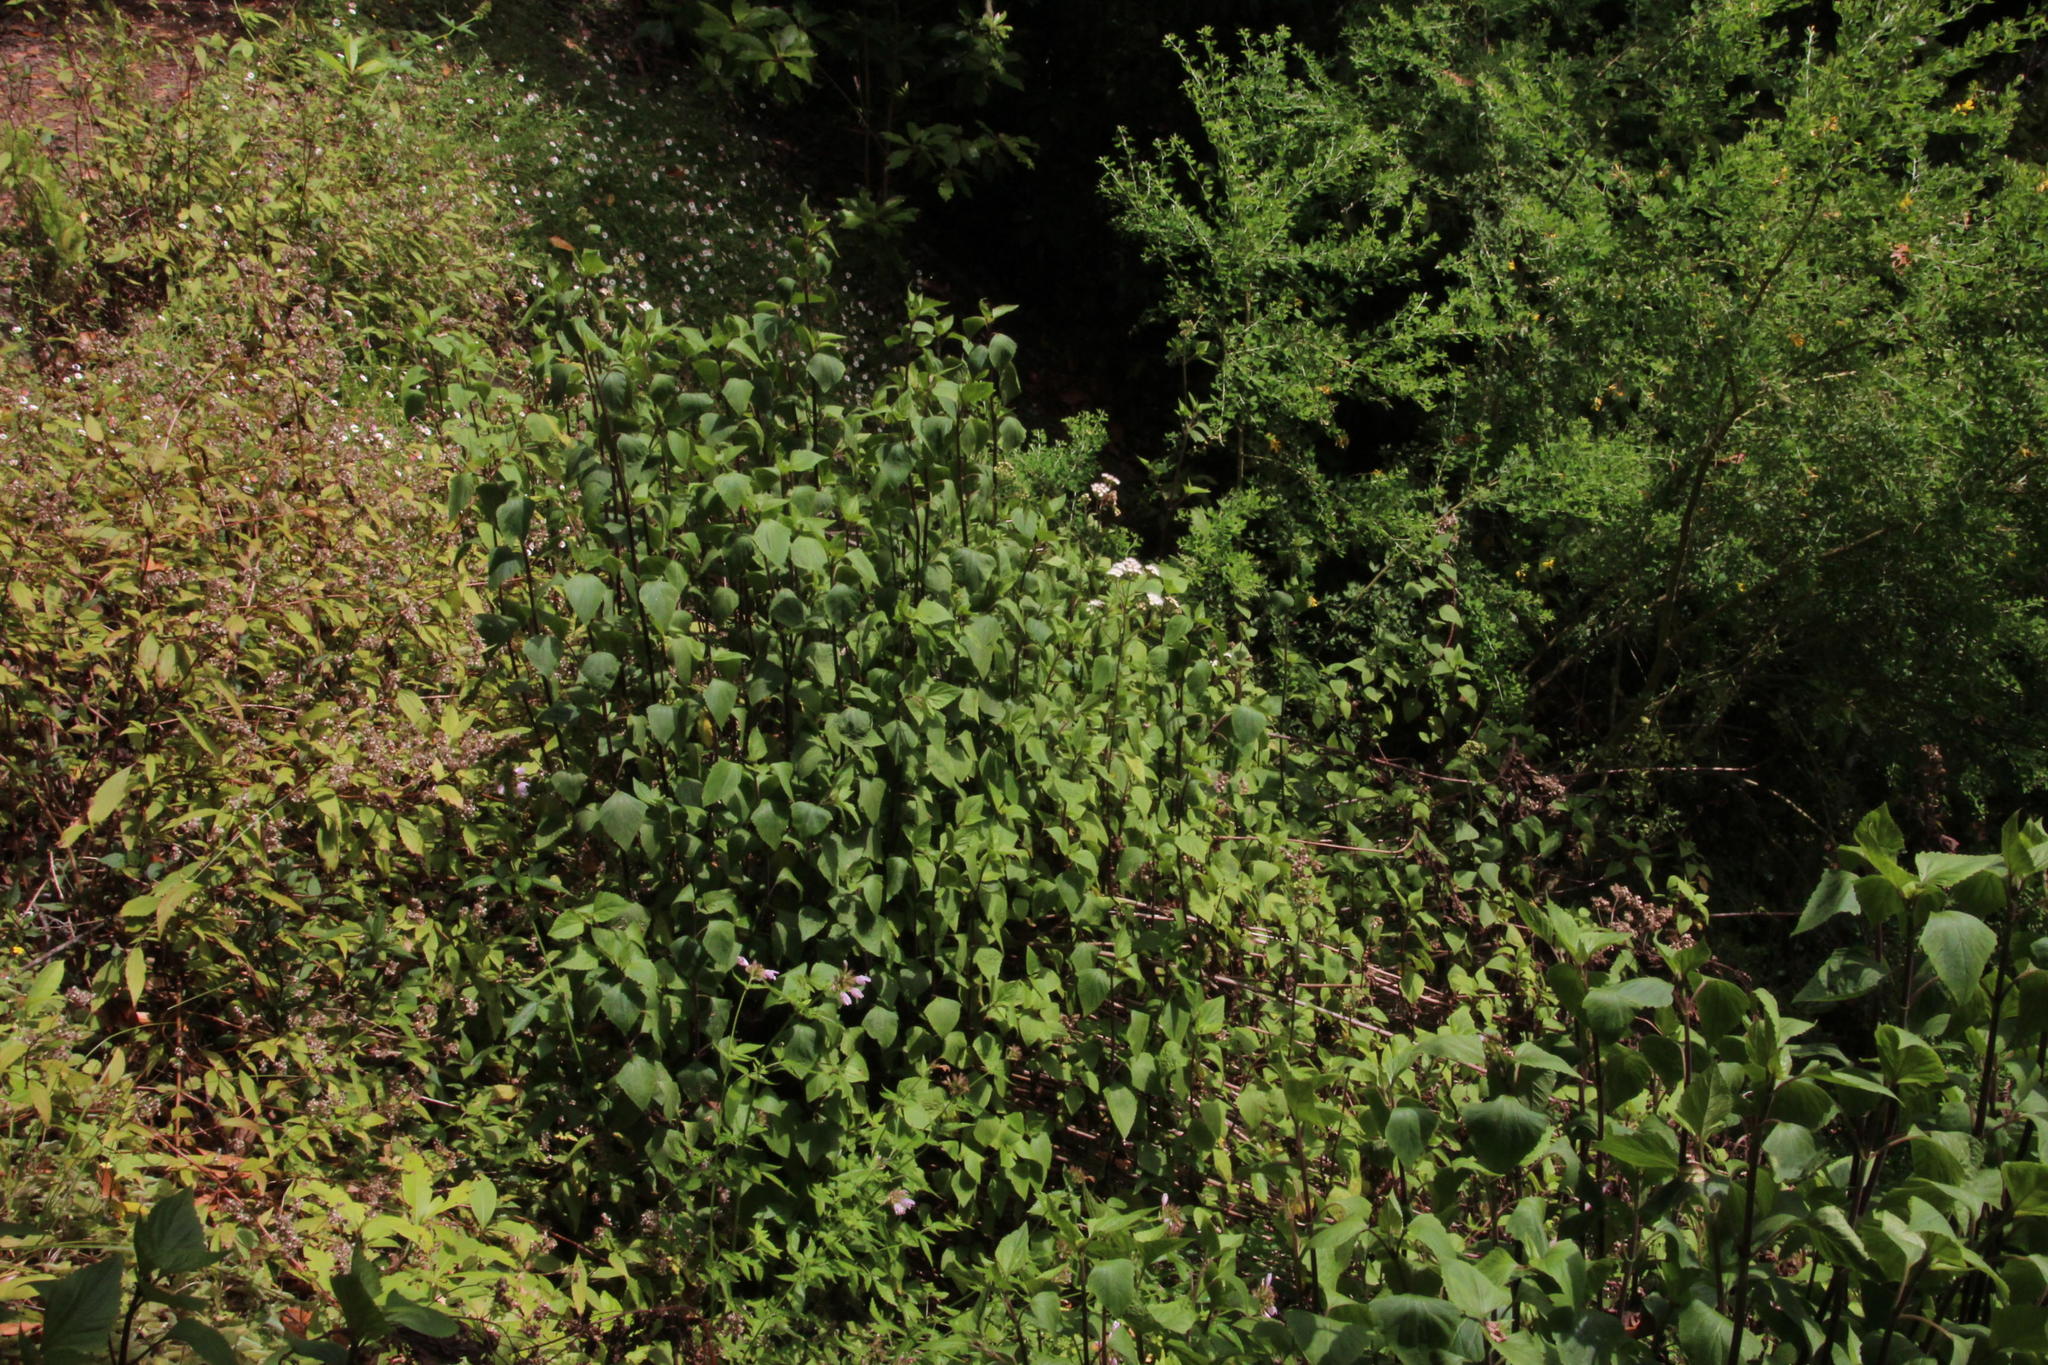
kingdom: Plantae
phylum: Tracheophyta
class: Magnoliopsida
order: Asterales
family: Asteraceae
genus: Ageratina
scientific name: Ageratina adenophora
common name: Sticky snakeroot
